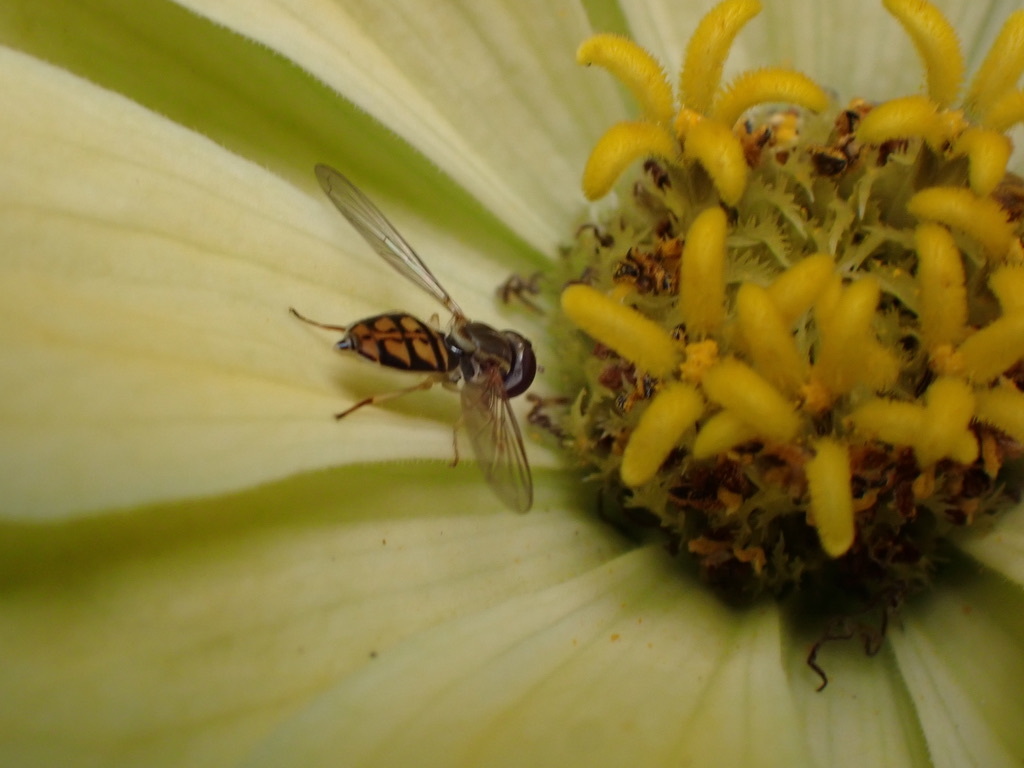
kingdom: Animalia
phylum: Arthropoda
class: Insecta
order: Diptera
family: Syrphidae
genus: Toxomerus
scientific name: Toxomerus marginatus
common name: Syrphid fly
